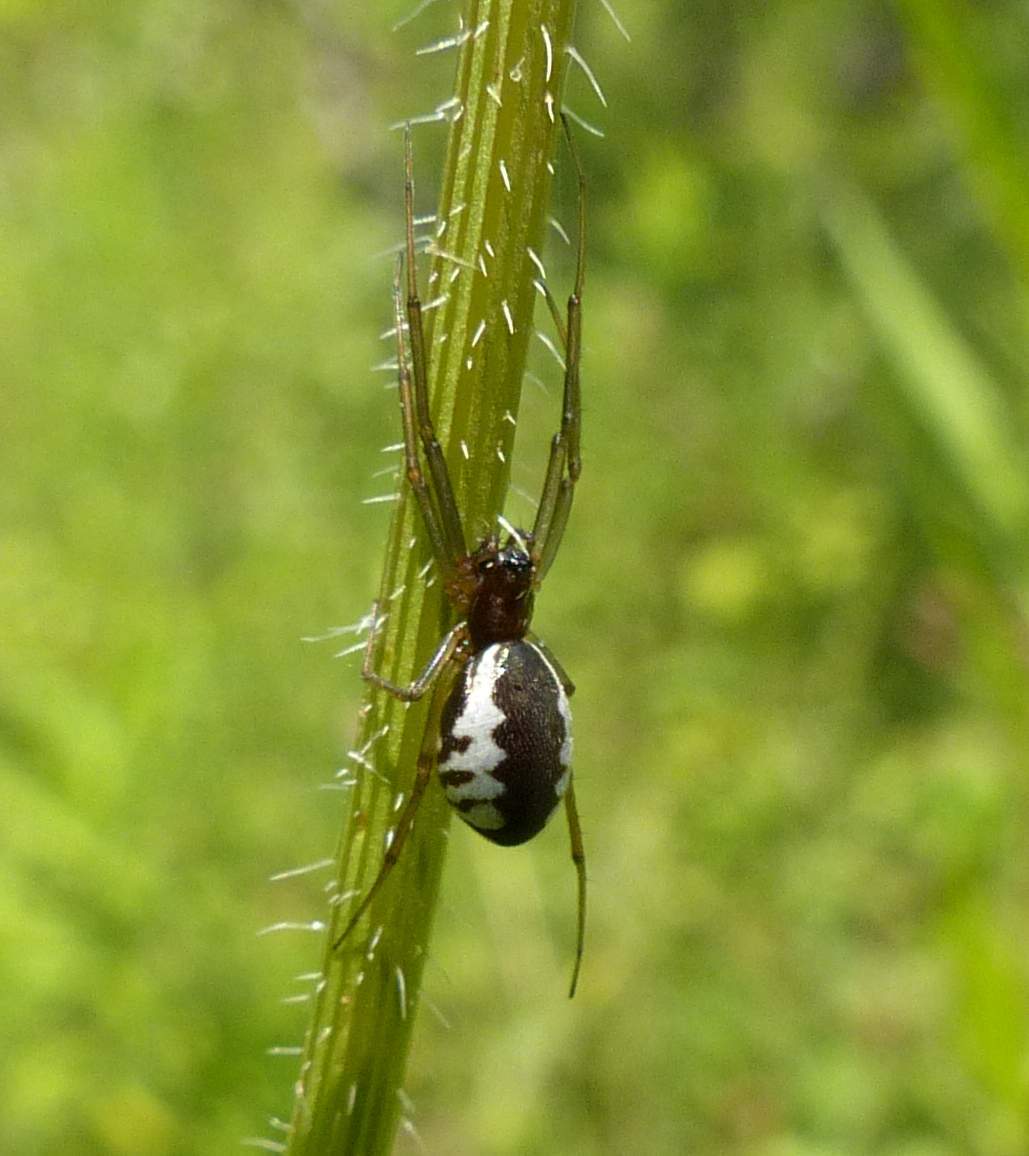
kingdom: Animalia
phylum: Arthropoda
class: Arachnida
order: Araneae
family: Linyphiidae
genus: Frontinella
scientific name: Frontinella pyramitela
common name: Bowl-and-doily spider
